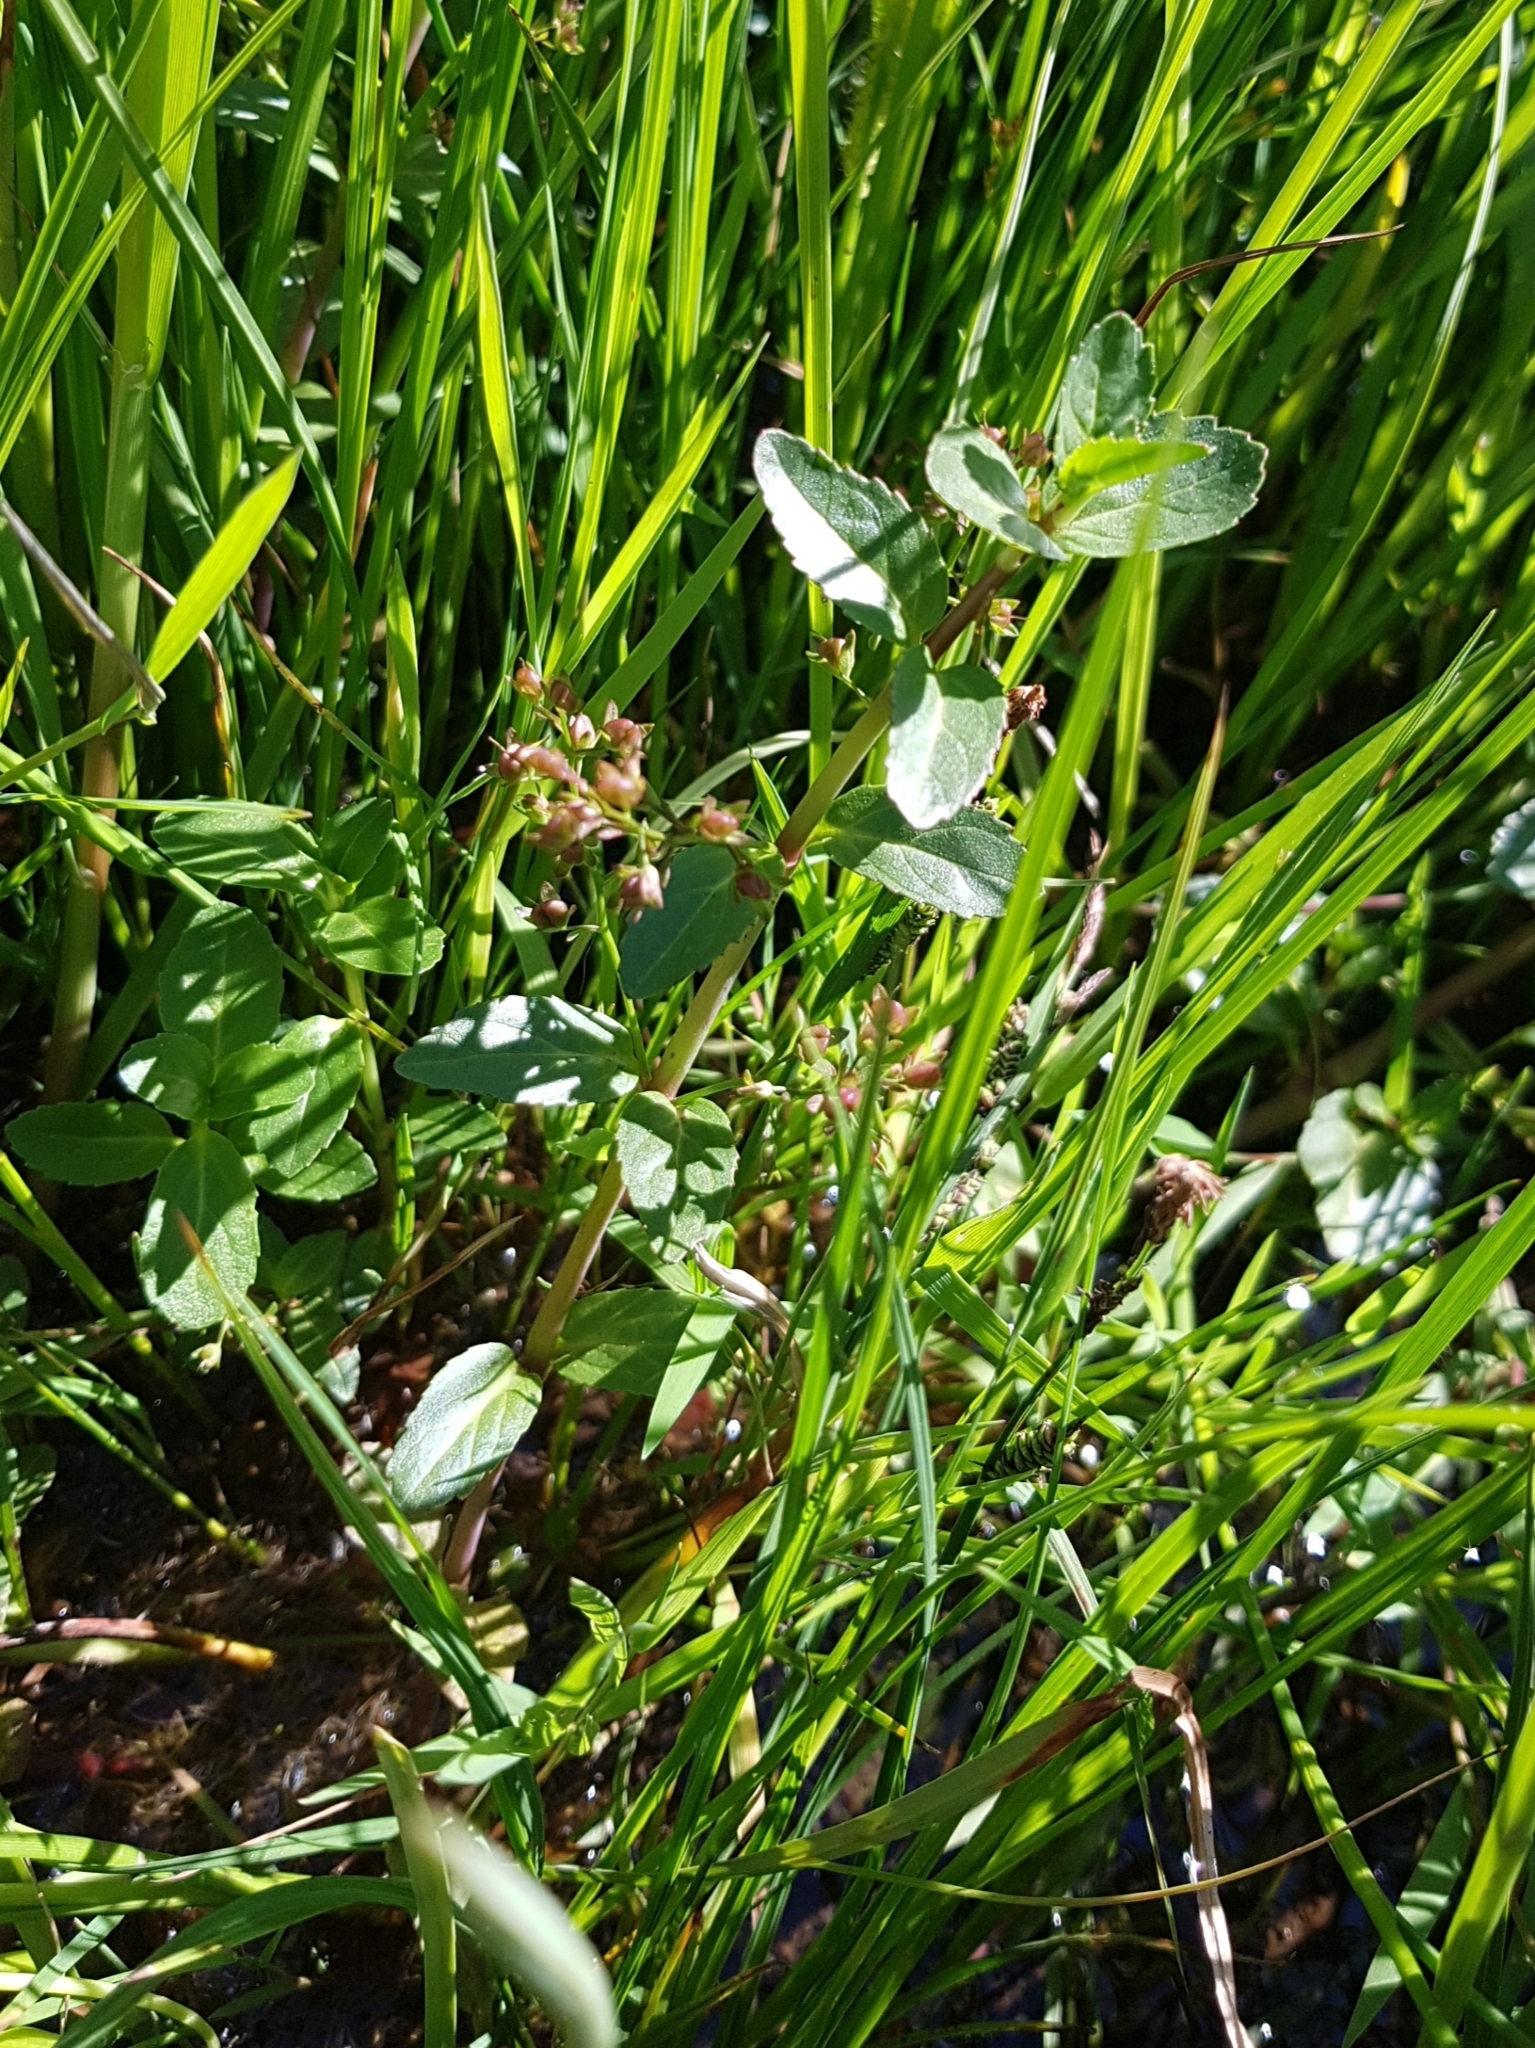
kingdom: Plantae
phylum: Tracheophyta
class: Magnoliopsida
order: Lamiales
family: Plantaginaceae
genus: Veronica
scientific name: Veronica beccabunga
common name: Brooklime
